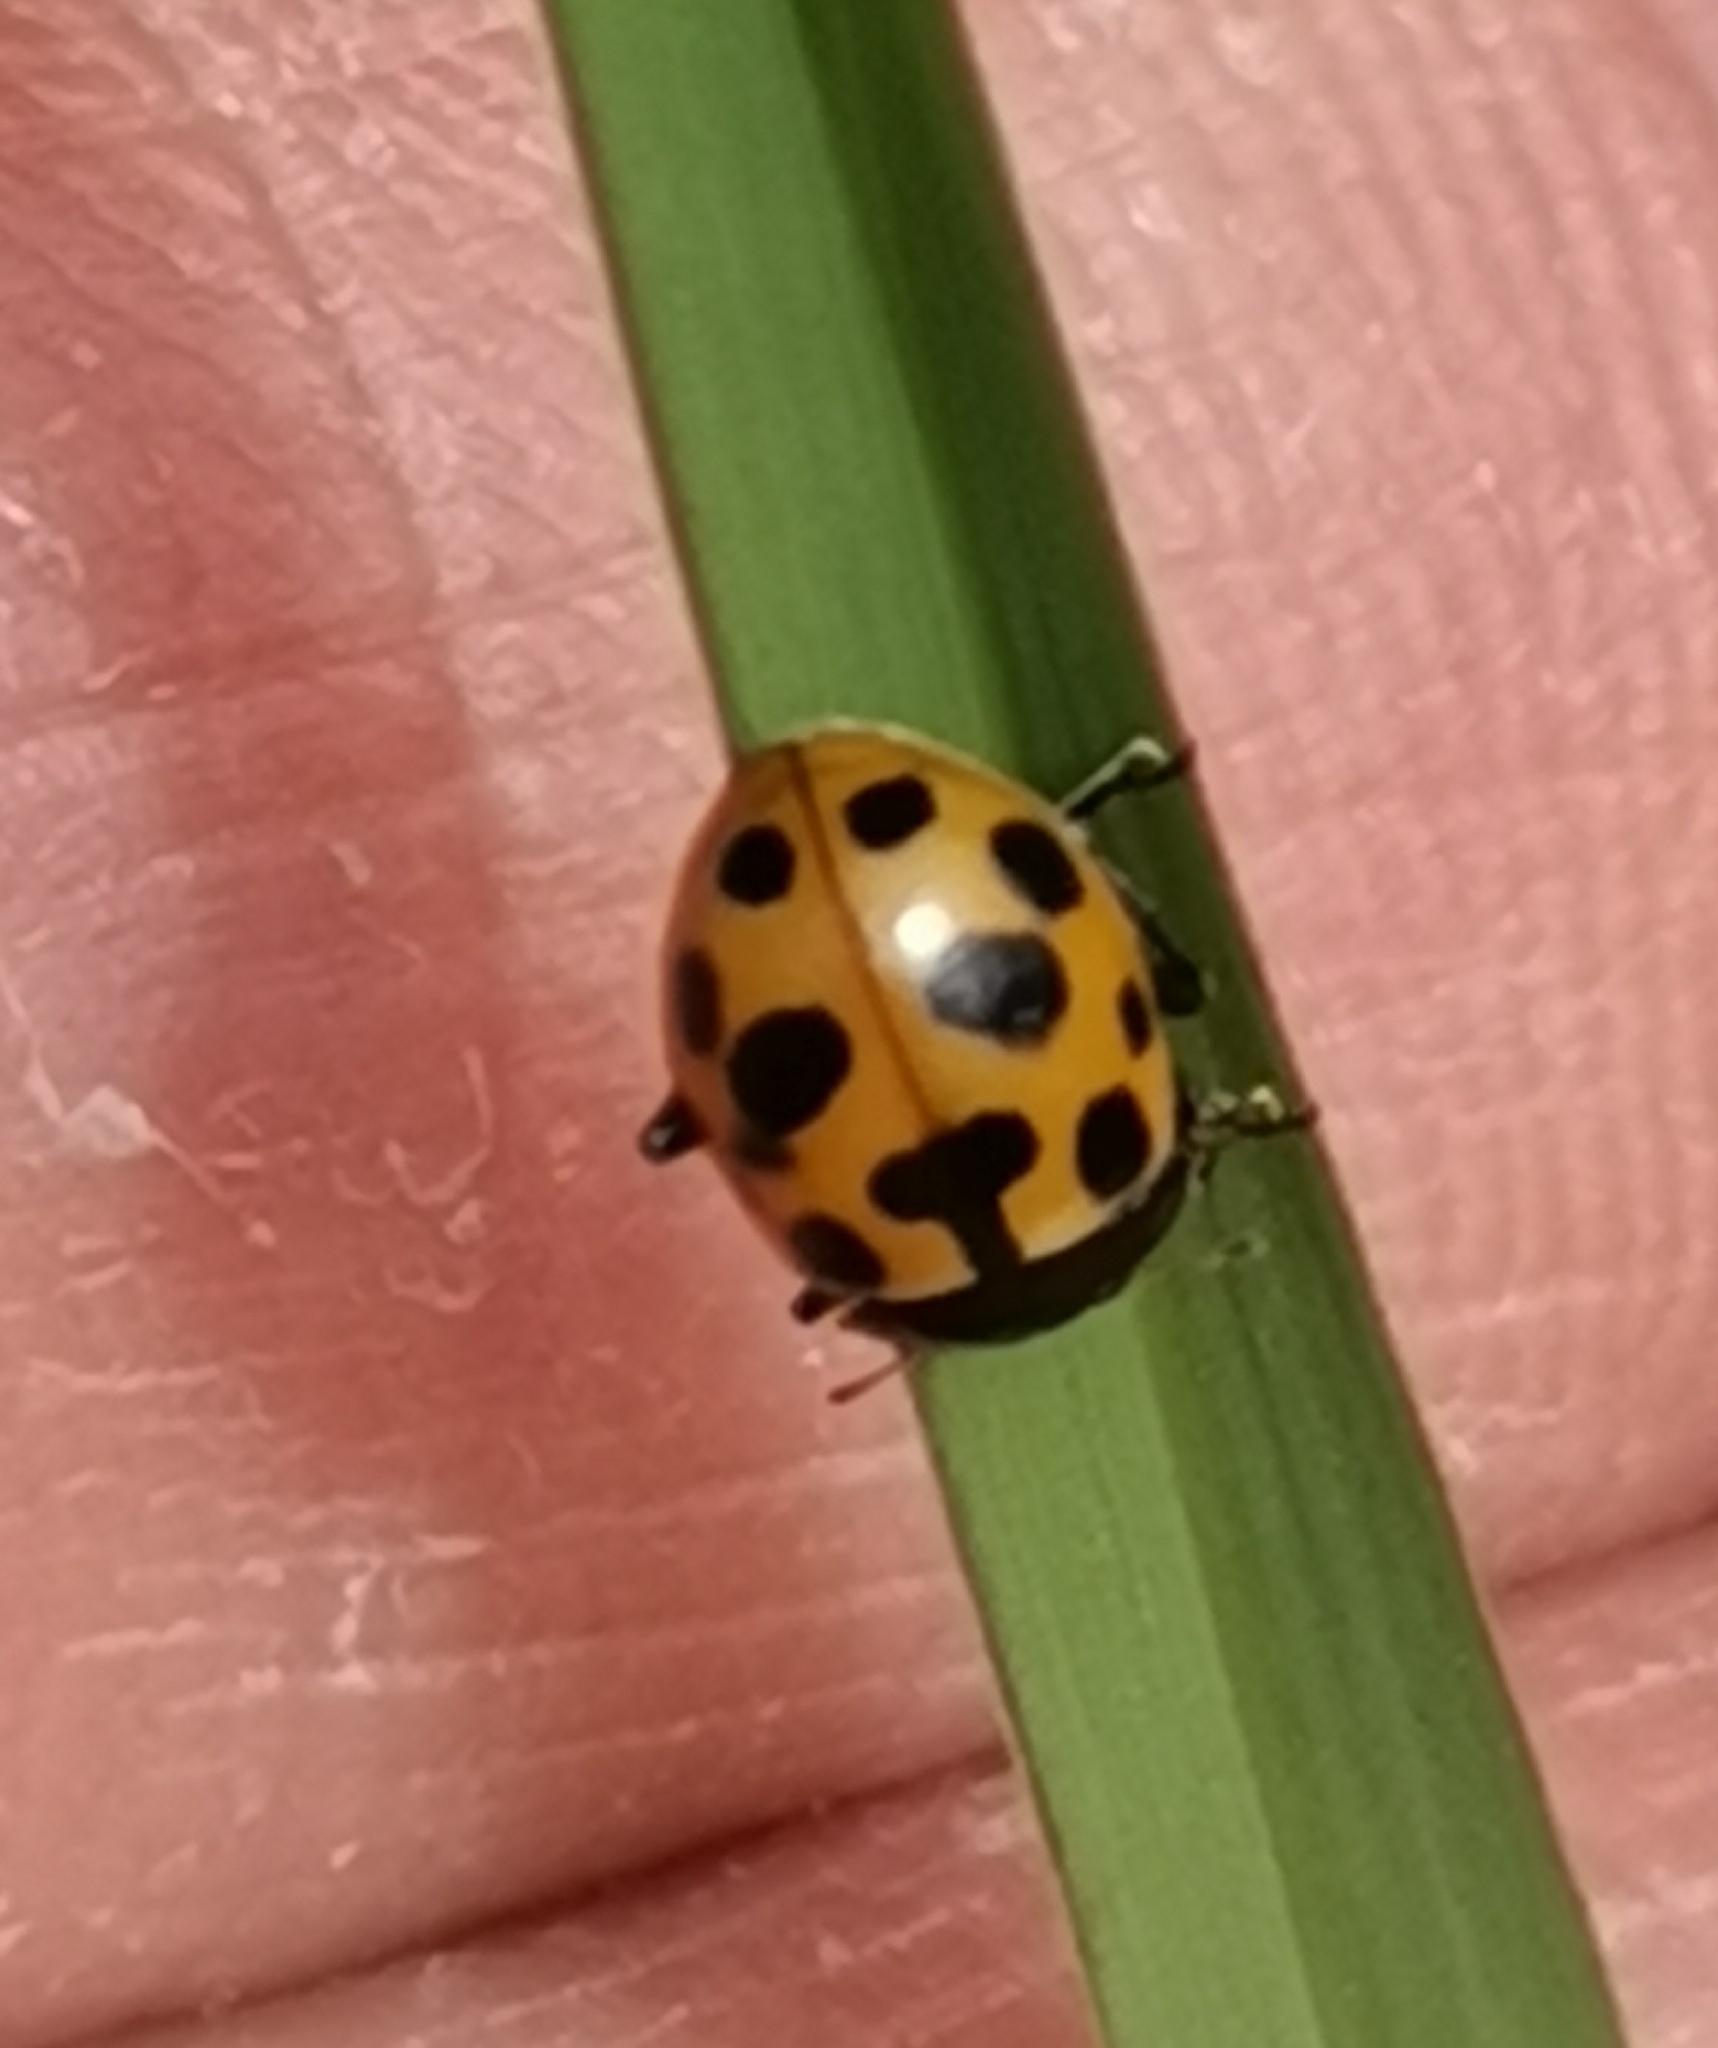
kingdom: Animalia
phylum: Arthropoda
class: Insecta
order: Coleoptera
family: Coccinellidae
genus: Ceratomegilla
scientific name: Ceratomegilla notata
